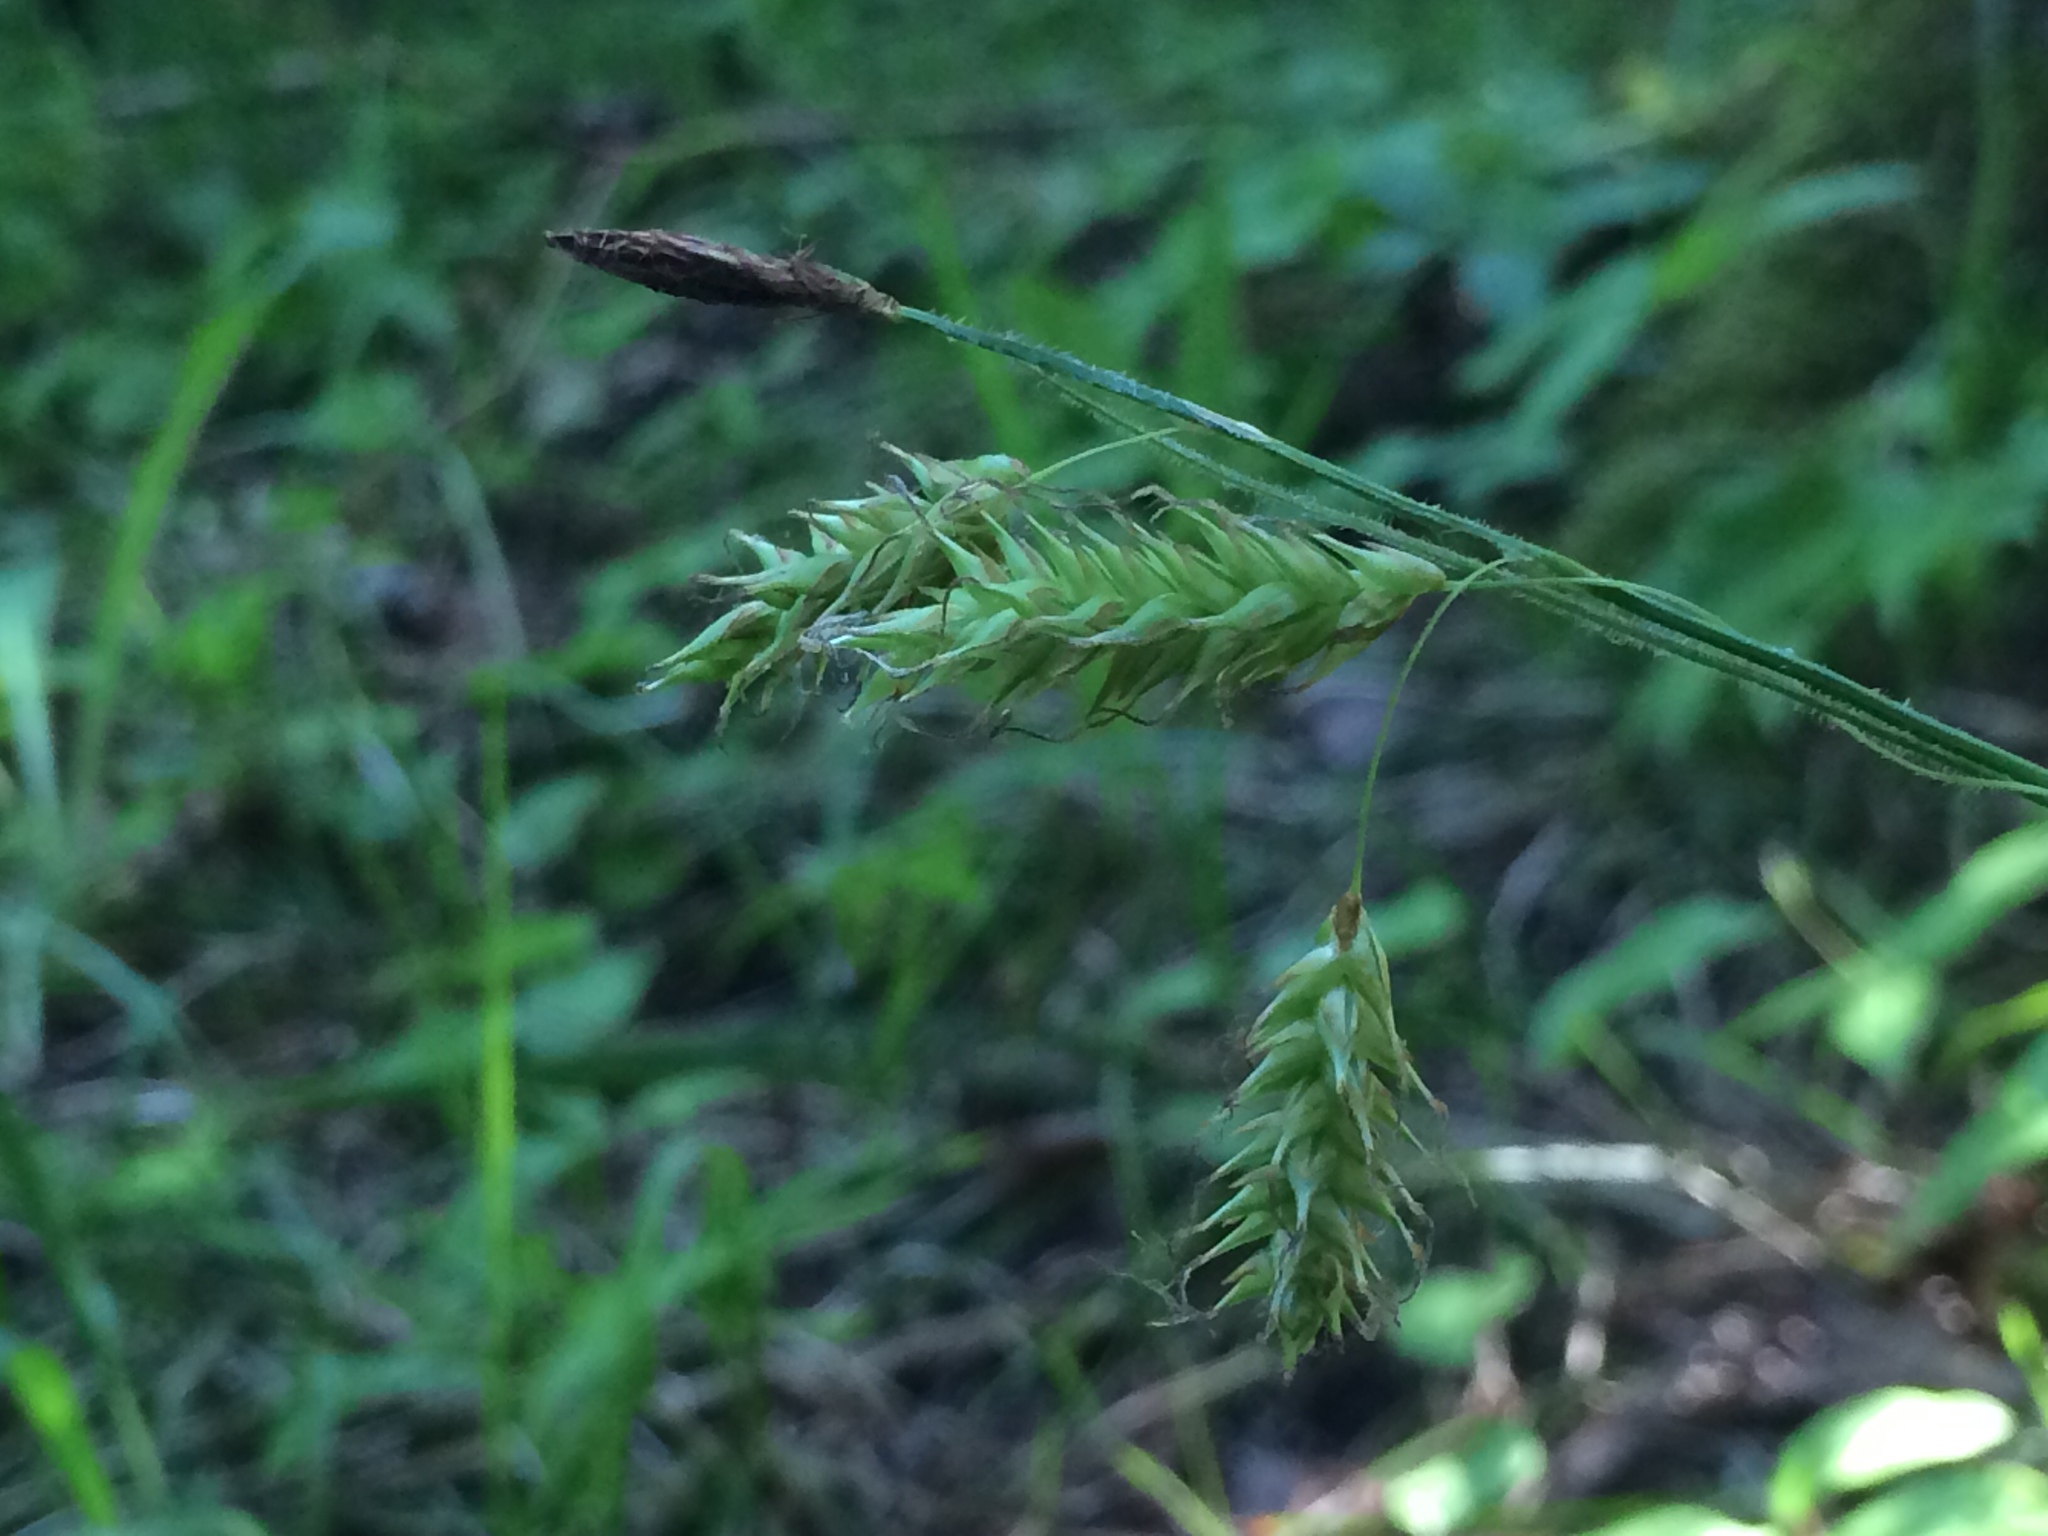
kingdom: Plantae
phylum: Tracheophyta
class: Liliopsida
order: Poales
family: Cyperaceae
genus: Carex
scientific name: Carex castanea
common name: Chestnut sedge
